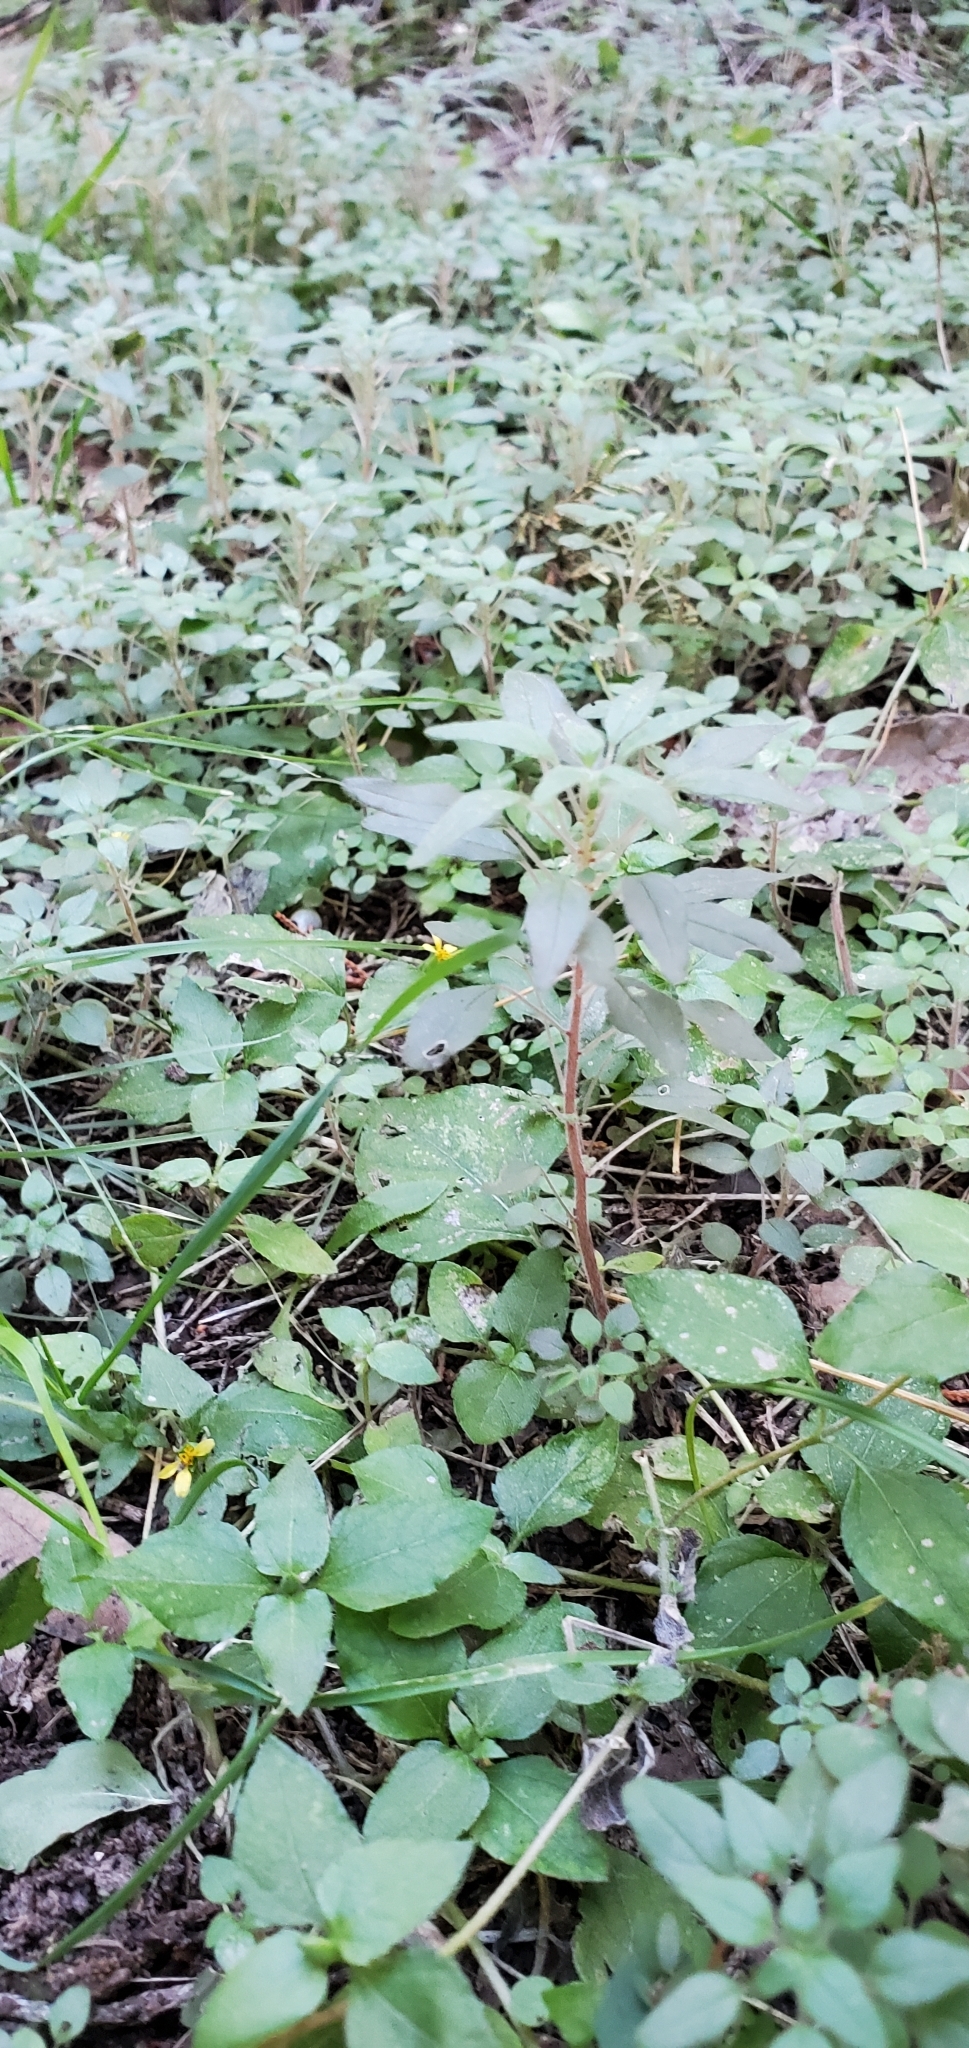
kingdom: Plantae
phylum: Tracheophyta
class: Magnoliopsida
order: Rosales
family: Urticaceae
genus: Parietaria
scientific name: Parietaria pensylvanica
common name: Pennsylvania pellitory
